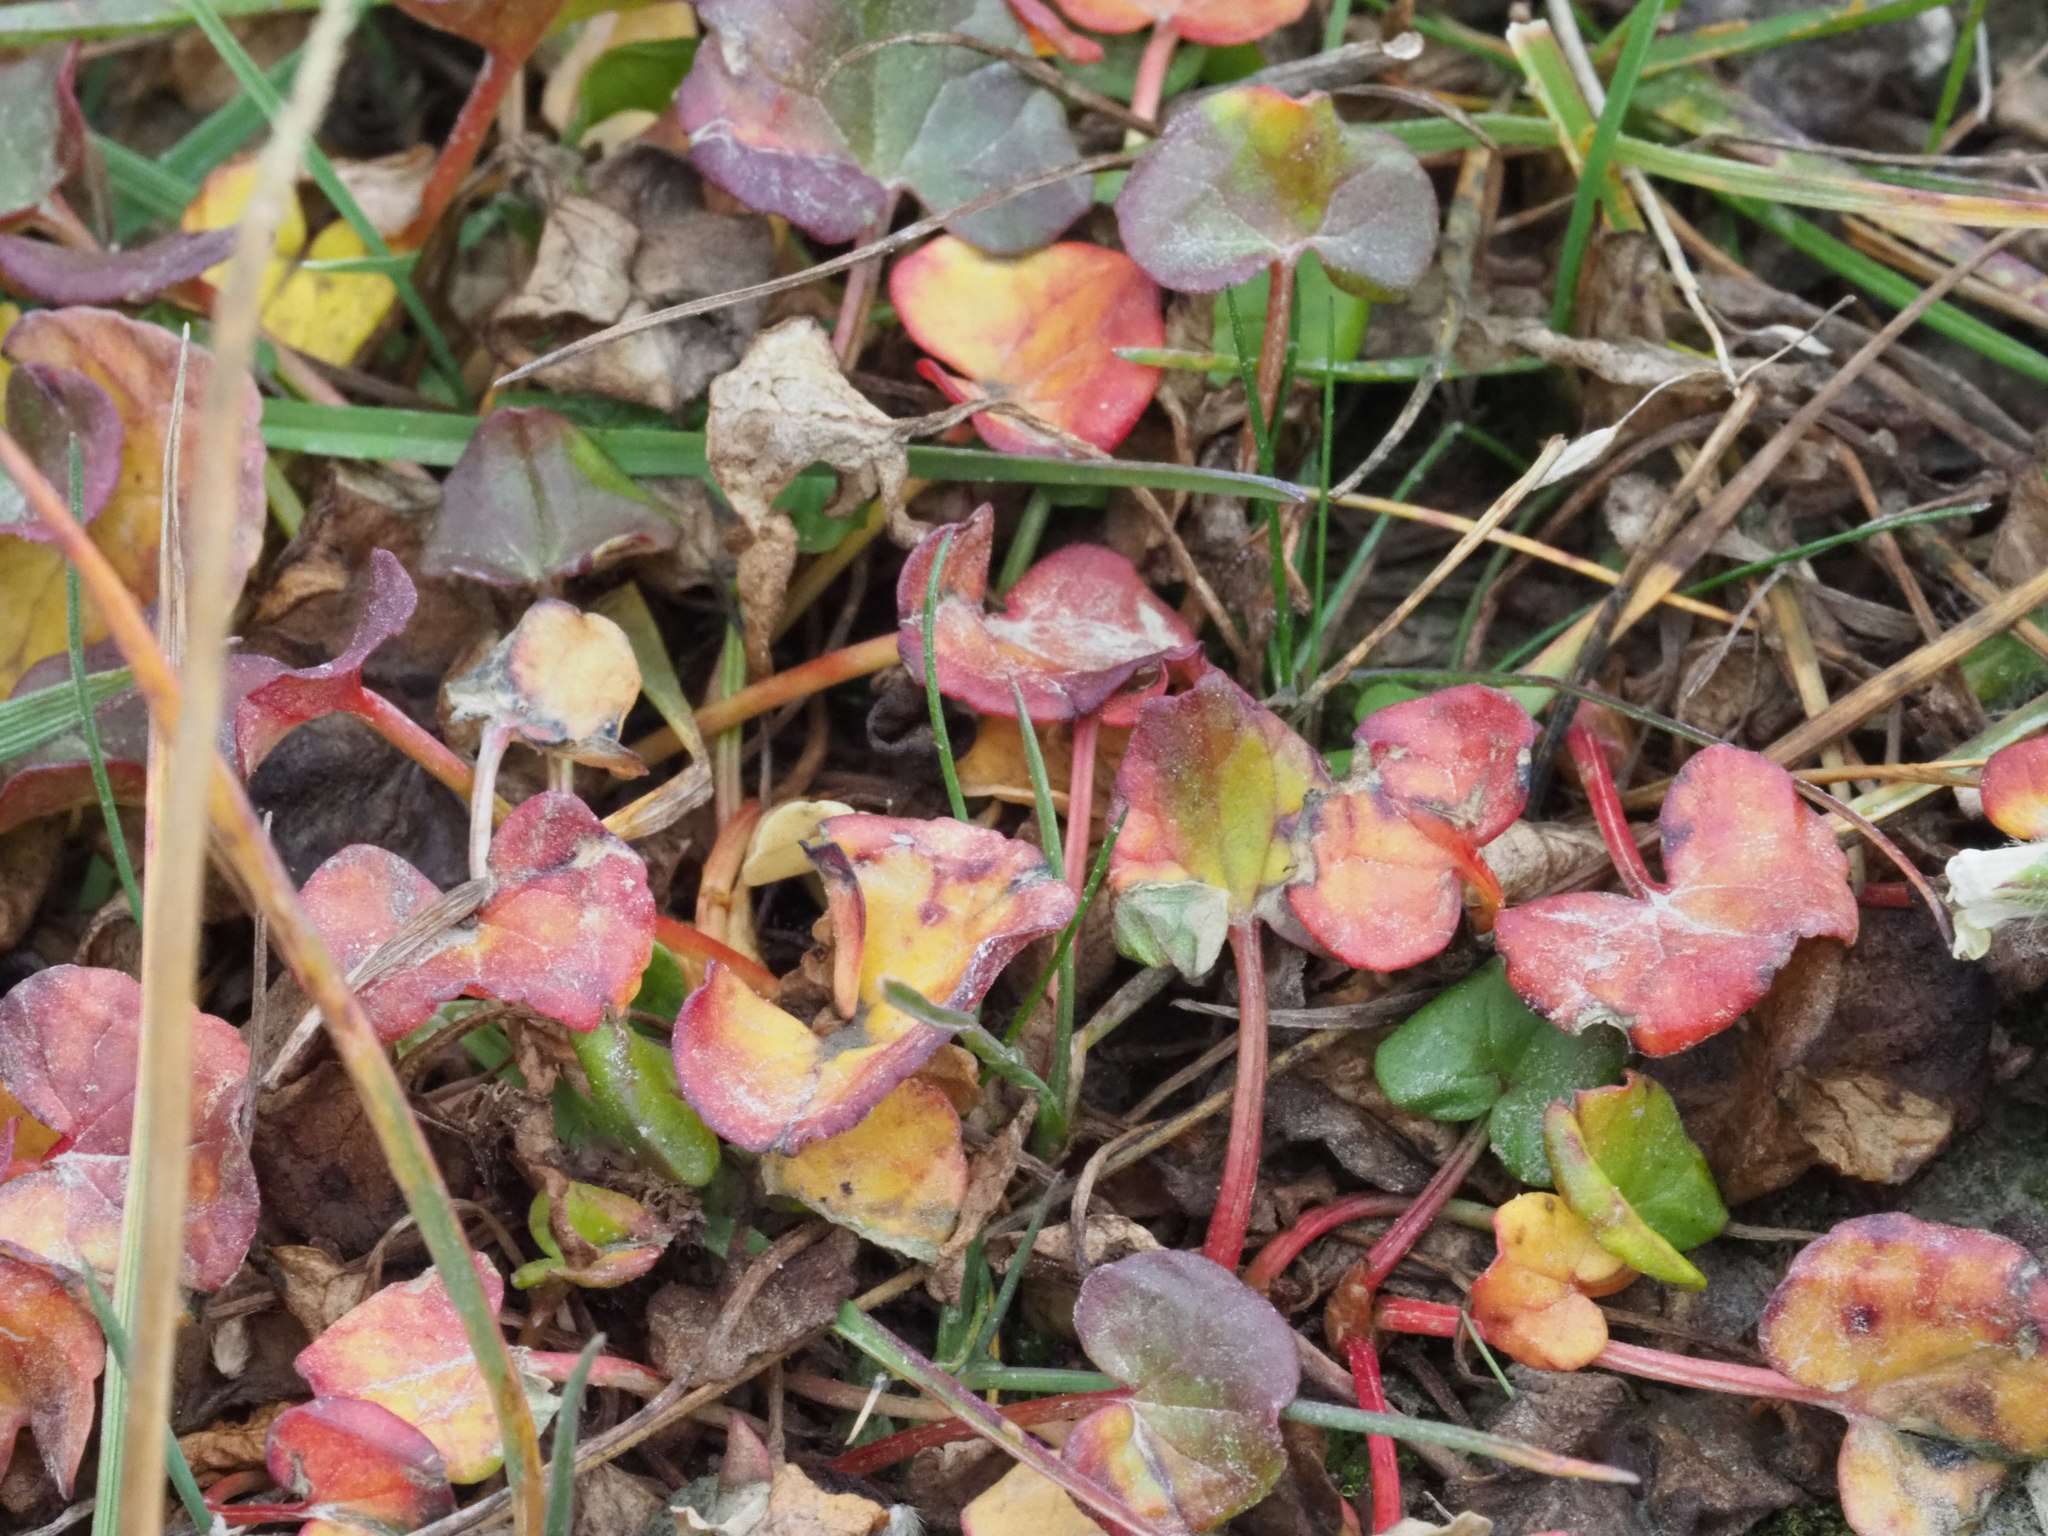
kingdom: Plantae
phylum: Tracheophyta
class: Magnoliopsida
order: Caryophyllales
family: Polygonaceae
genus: Oxyria
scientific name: Oxyria digyna
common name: Alpine mountain-sorrel
